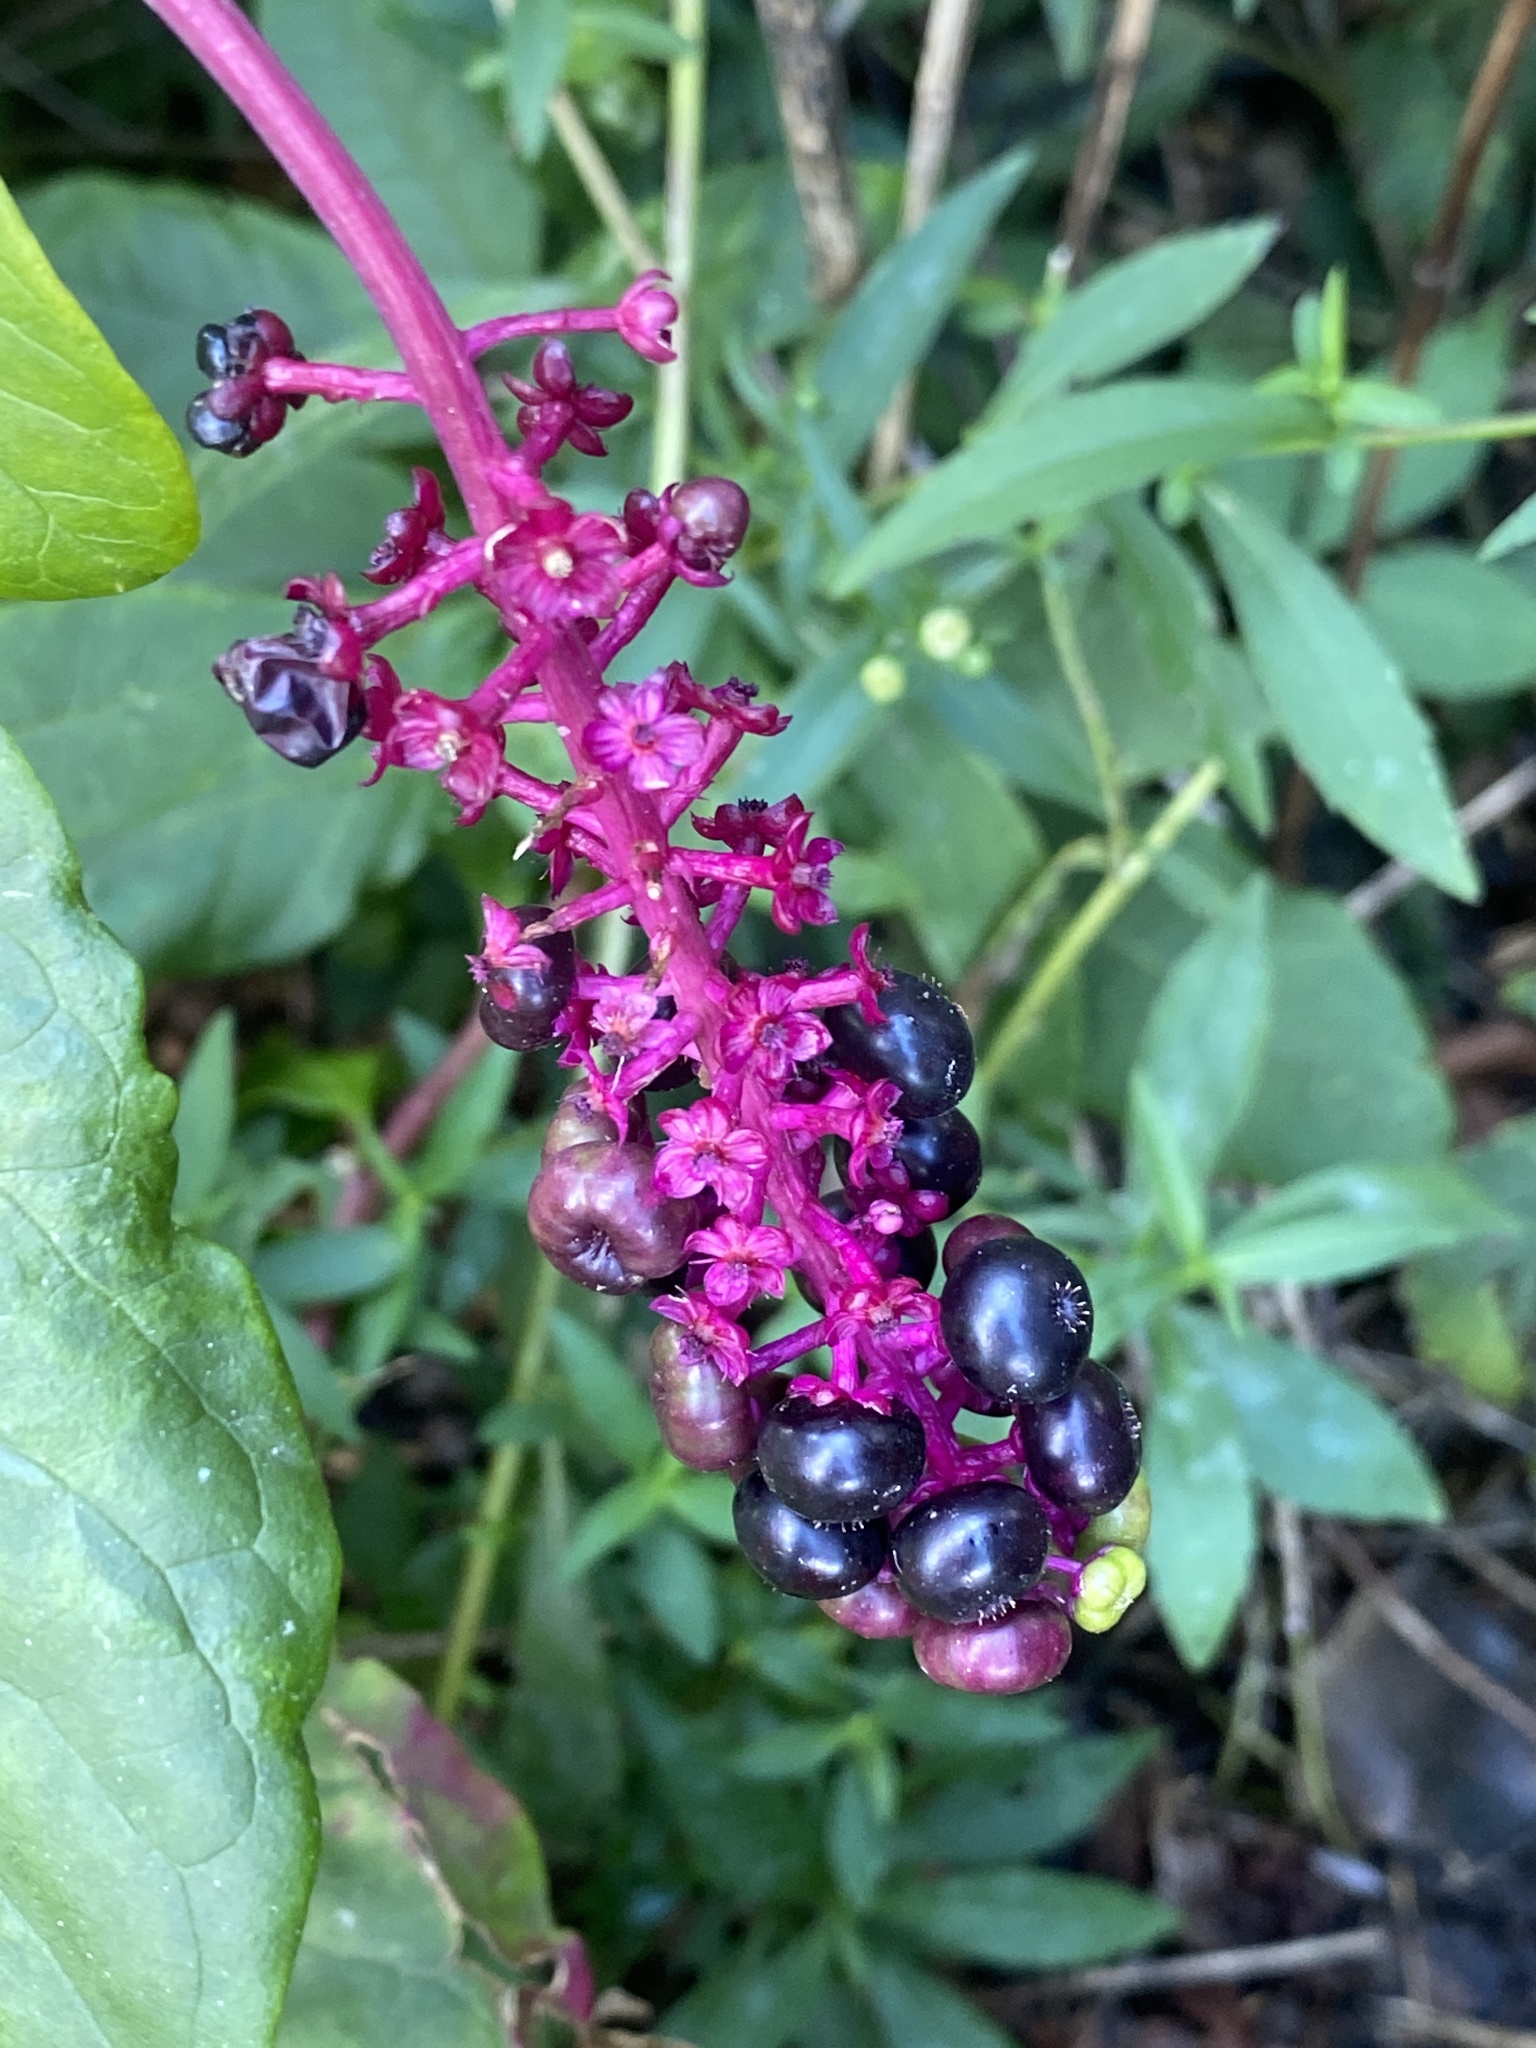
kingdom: Plantae
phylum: Tracheophyta
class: Magnoliopsida
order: Caryophyllales
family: Phytolaccaceae
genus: Phytolacca
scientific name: Phytolacca americana
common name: American pokeweed
